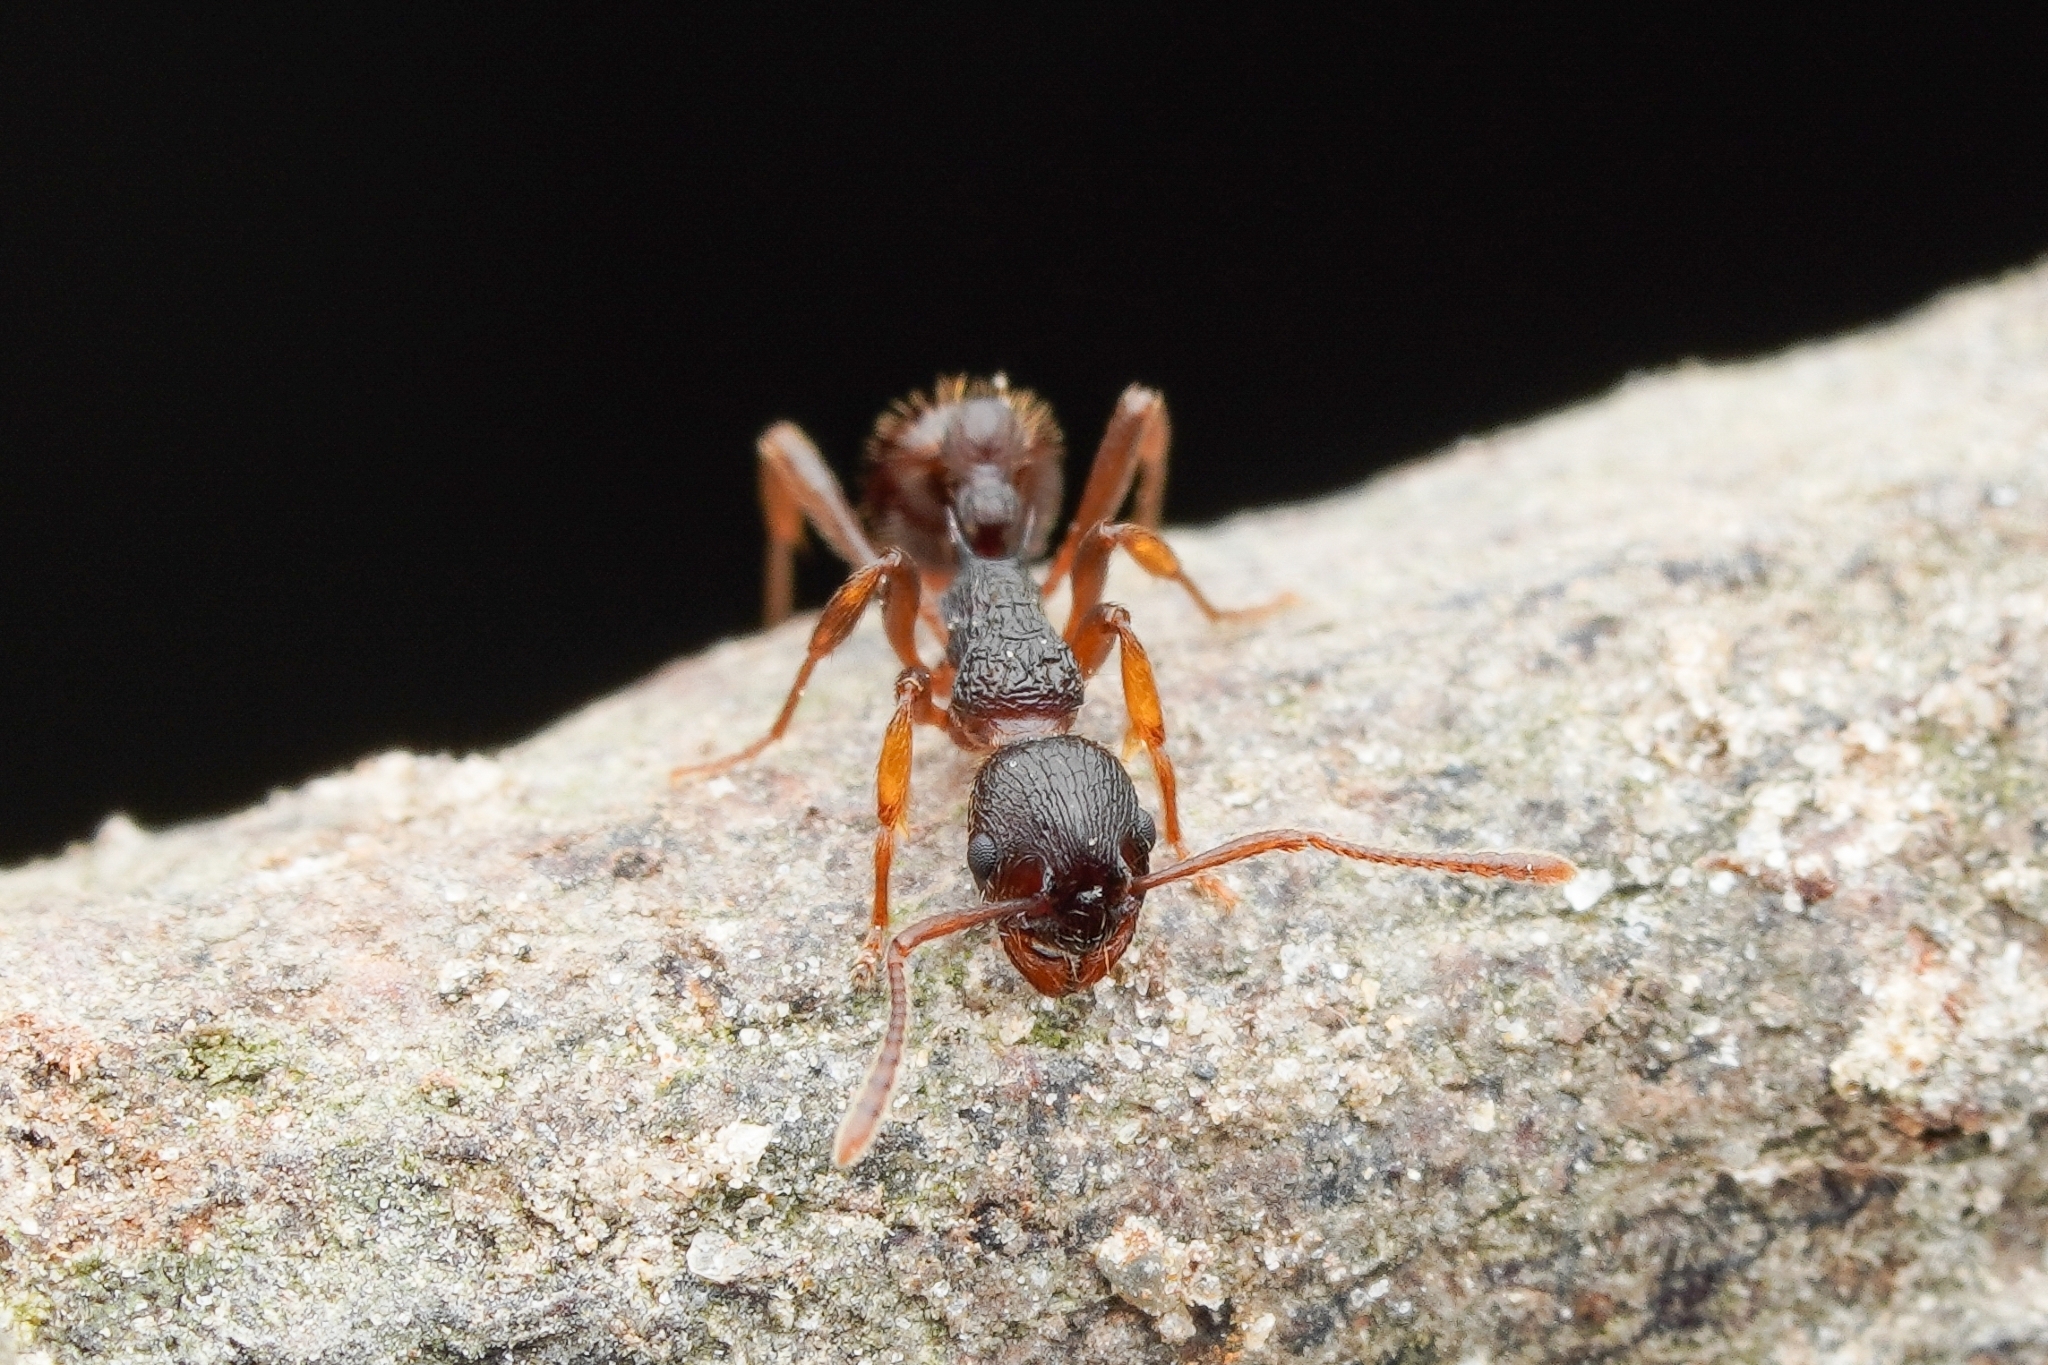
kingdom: Animalia
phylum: Arthropoda
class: Insecta
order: Hymenoptera
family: Formicidae
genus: Myrmica
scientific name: Myrmica kotokui
